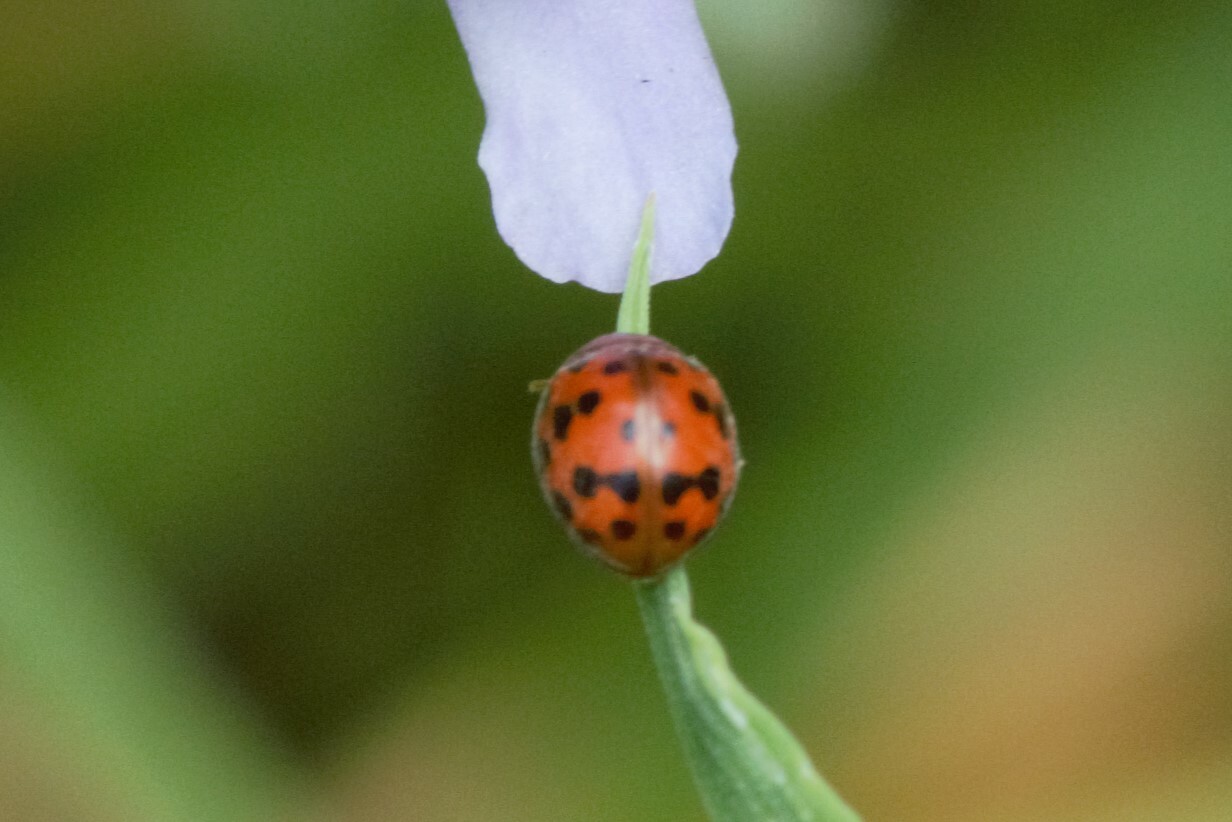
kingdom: Animalia
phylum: Arthropoda
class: Insecta
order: Coleoptera
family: Coccinellidae
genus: Subcoccinella
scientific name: Subcoccinella vigintiquatuorpunctata
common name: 24-spot ladybird
